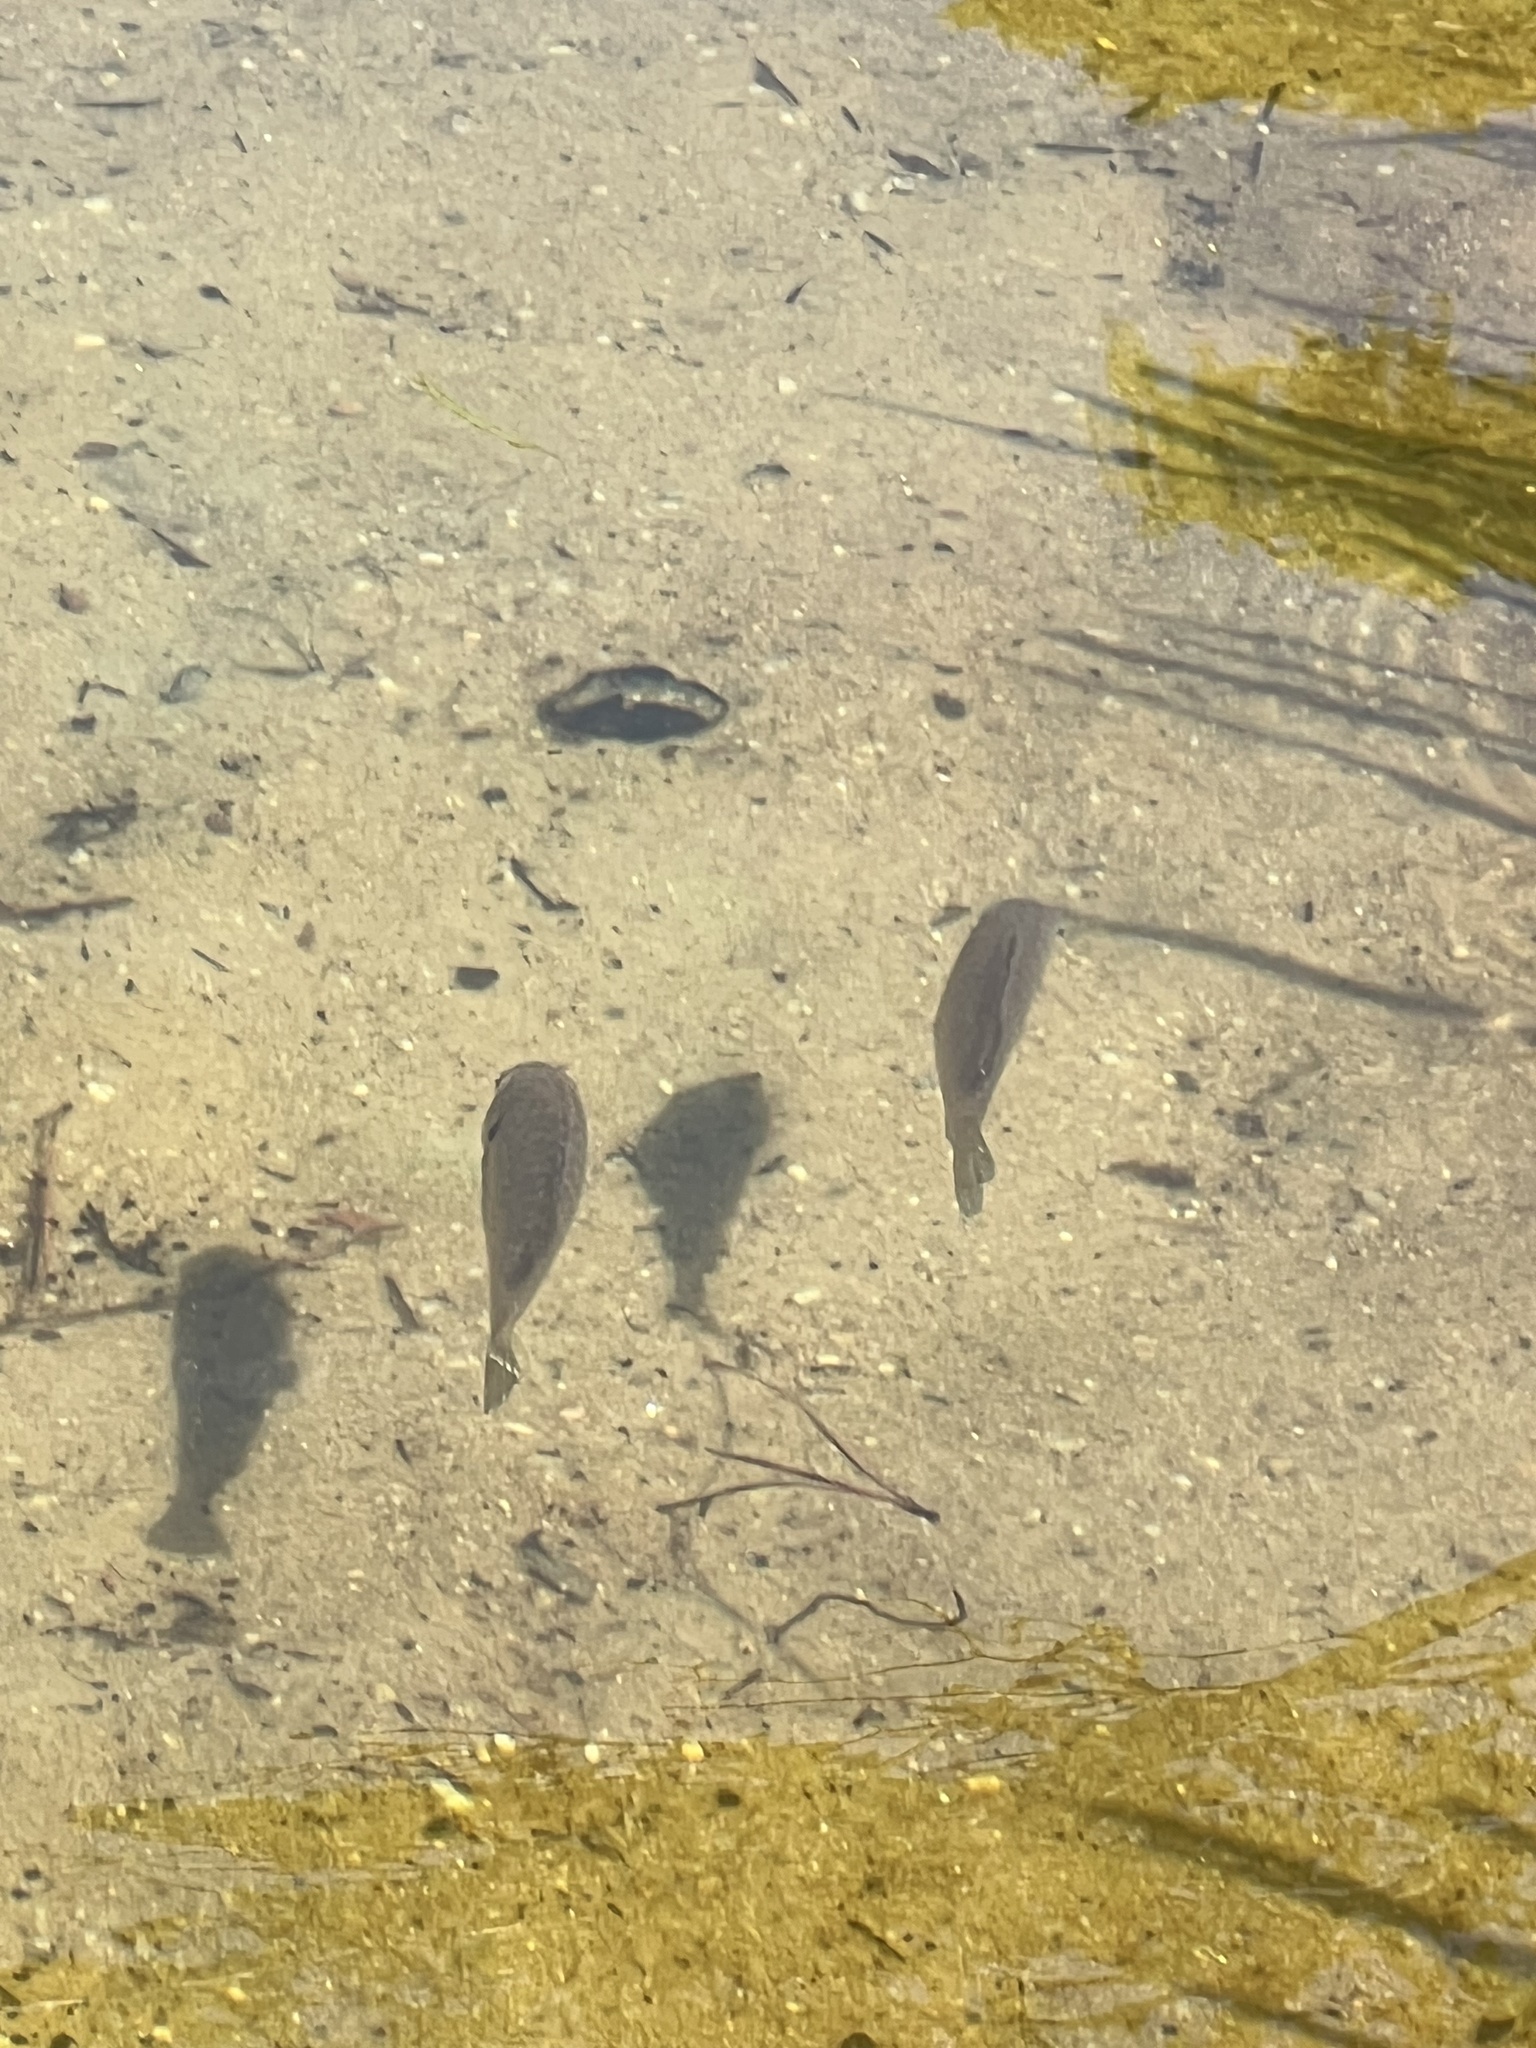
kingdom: Animalia
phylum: Chordata
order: Perciformes
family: Centrarchidae
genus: Lepomis
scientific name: Lepomis gibbosus
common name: Pumpkinseed
